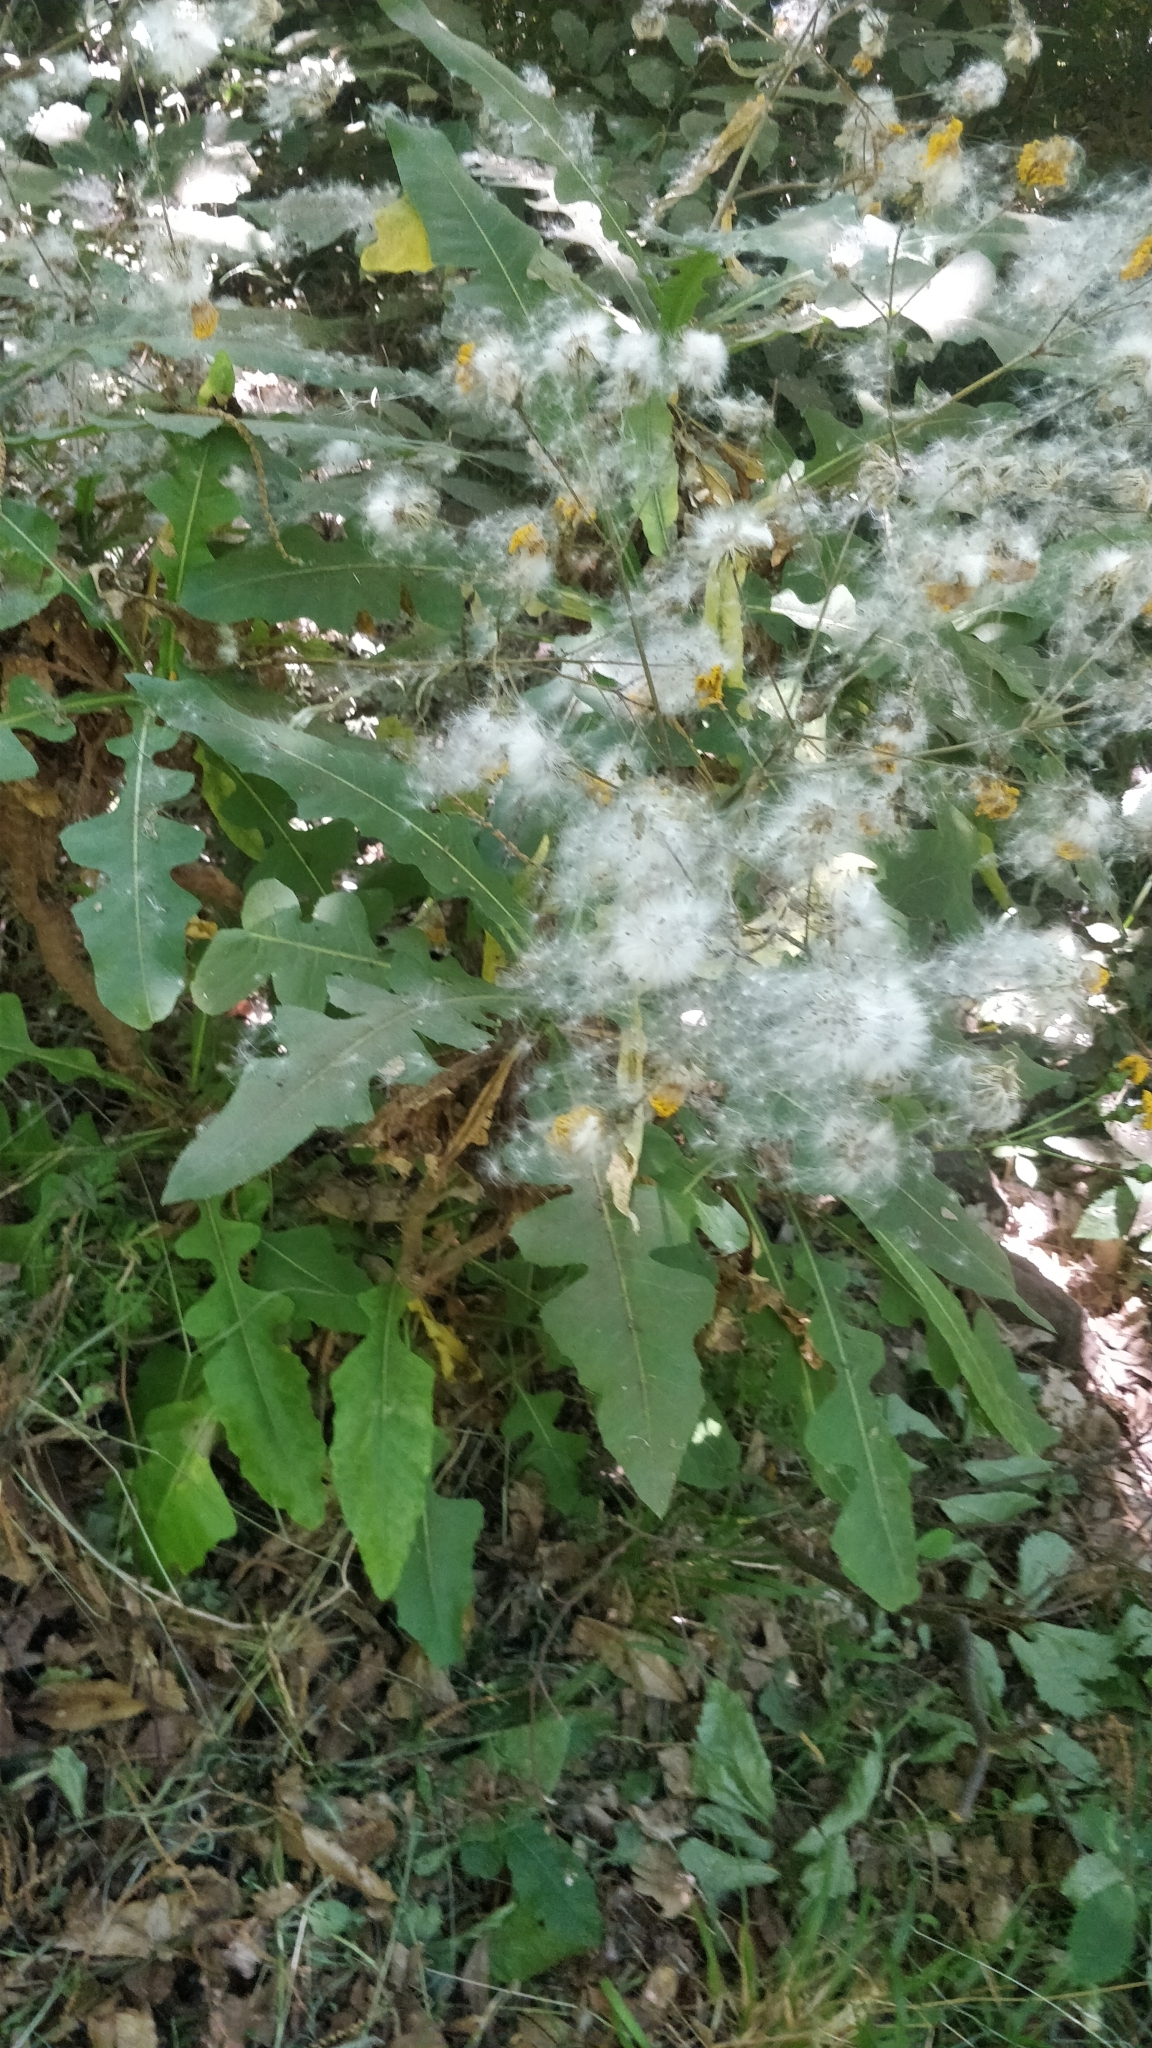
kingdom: Plantae
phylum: Tracheophyta
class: Magnoliopsida
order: Asterales
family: Asteraceae
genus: Sonchus
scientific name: Sonchus fruticosus
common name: Shrubby sow-thistle
